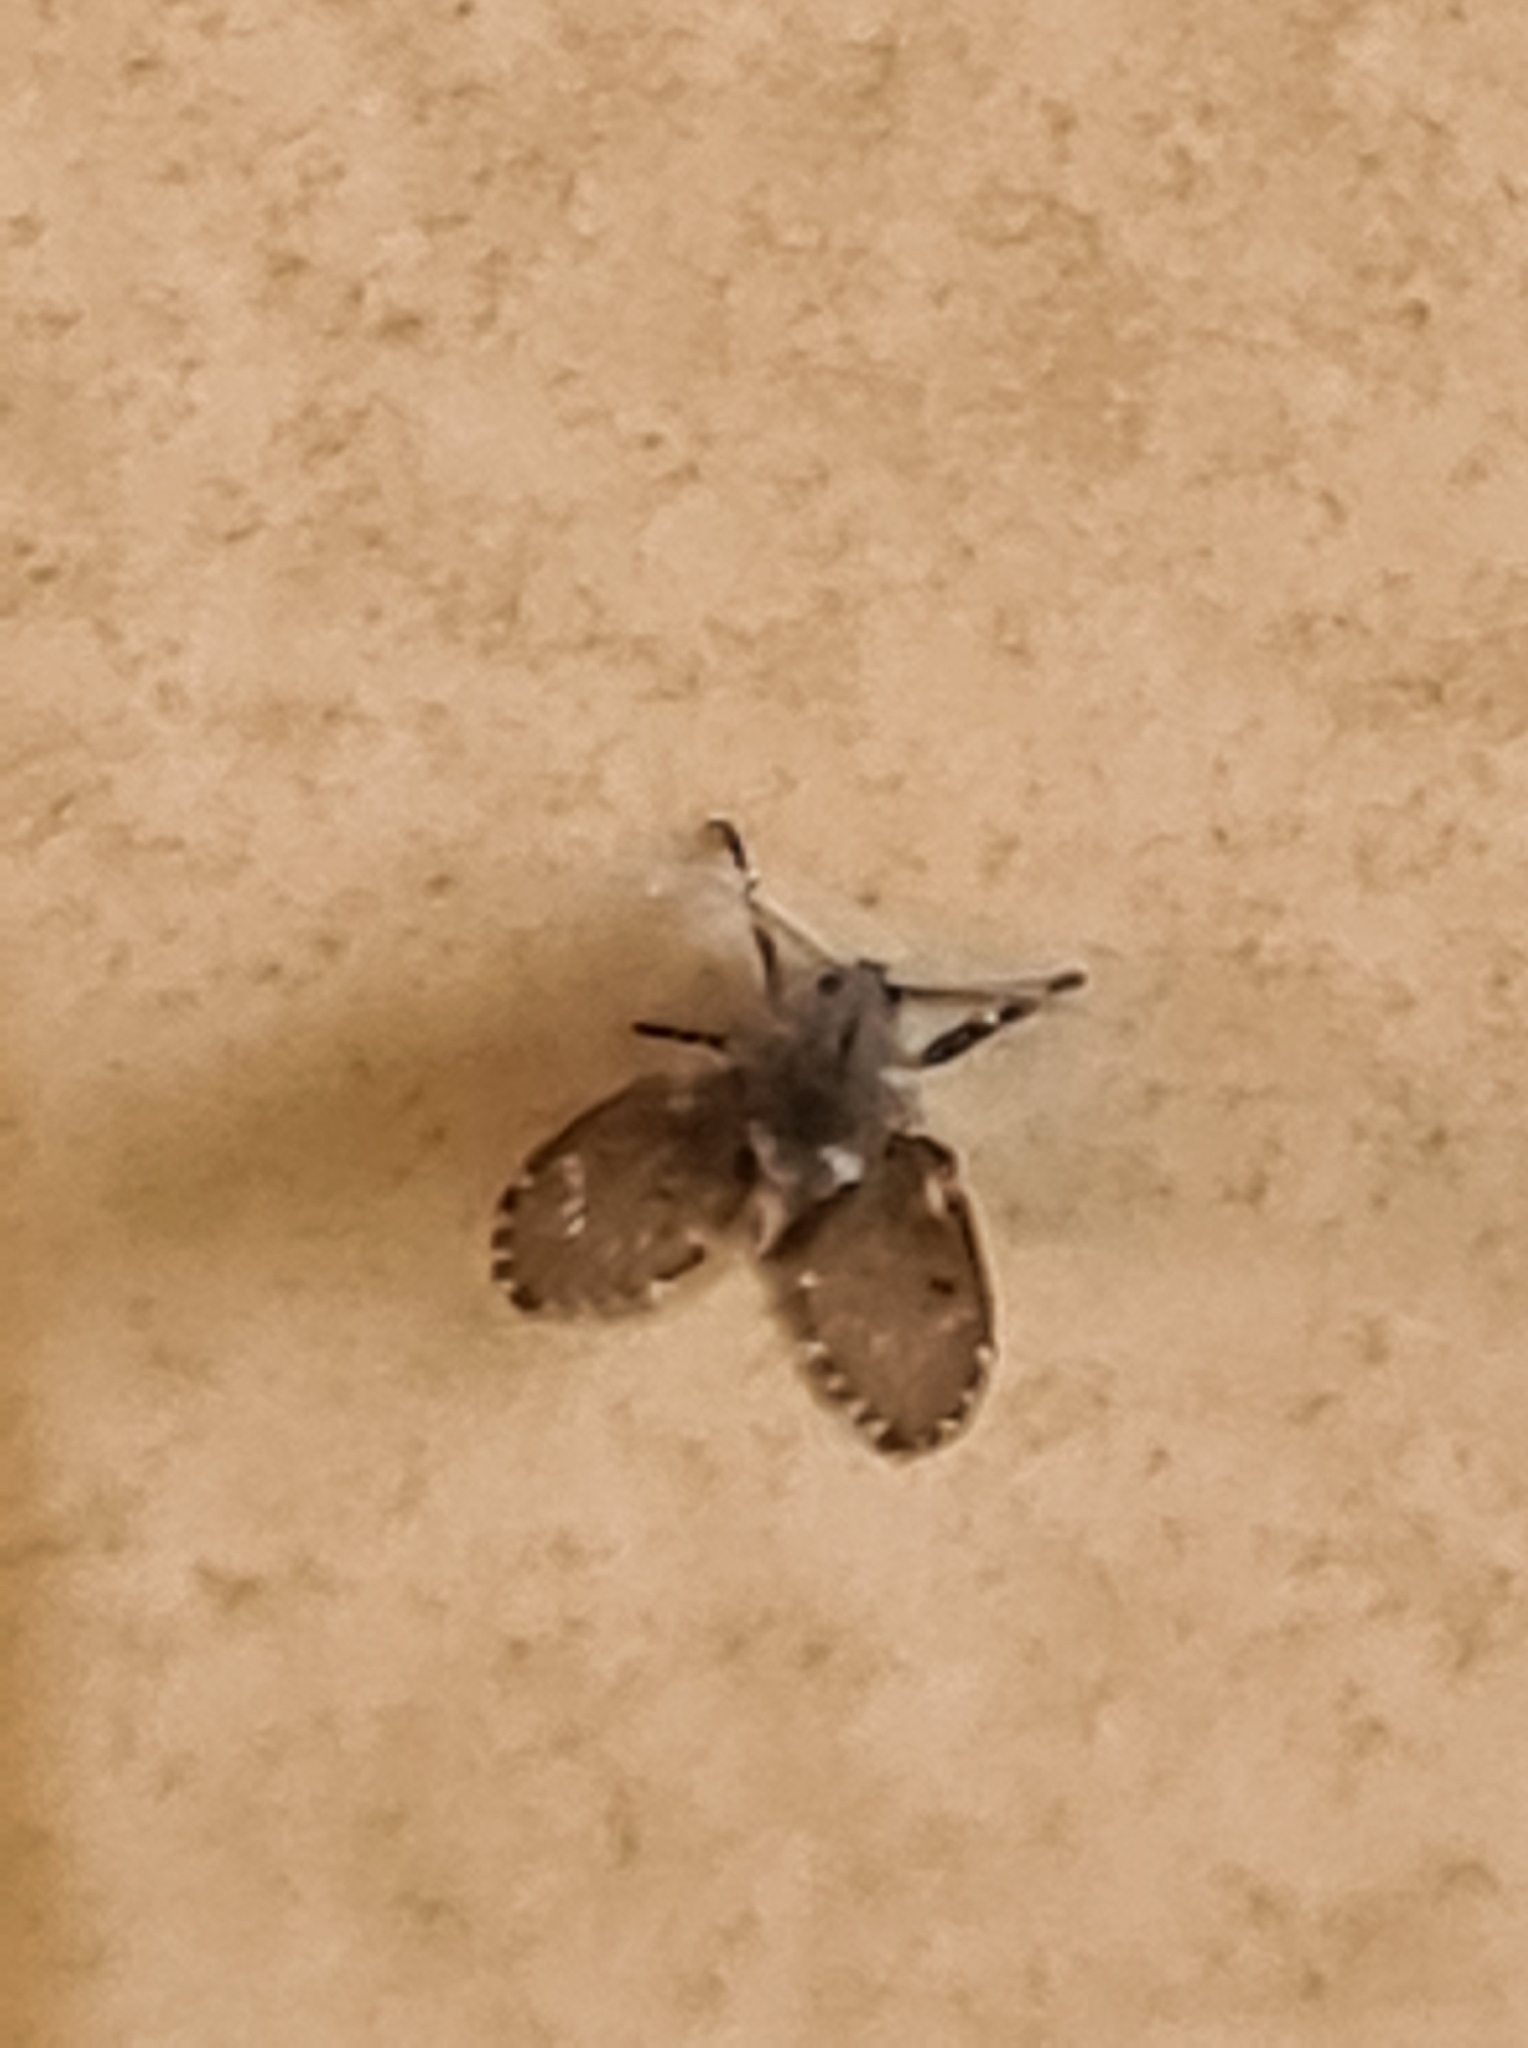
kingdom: Animalia
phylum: Arthropoda
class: Insecta
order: Diptera
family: Psychodidae
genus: Clogmia
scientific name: Clogmia albipunctatus
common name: White-spotted moth fly
